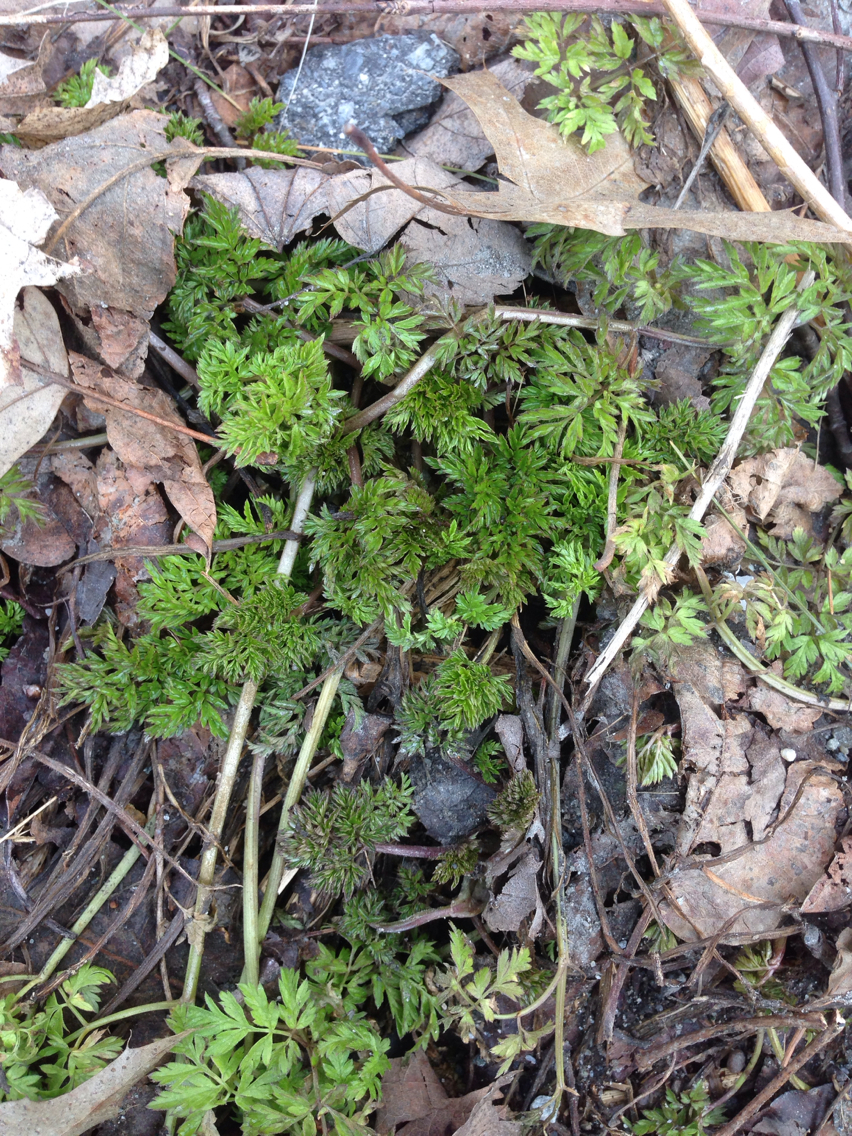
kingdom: Plantae
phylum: Tracheophyta
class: Magnoliopsida
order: Apiales
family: Apiaceae
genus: Anthriscus
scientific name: Anthriscus sylvestris
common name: Cow parsley
